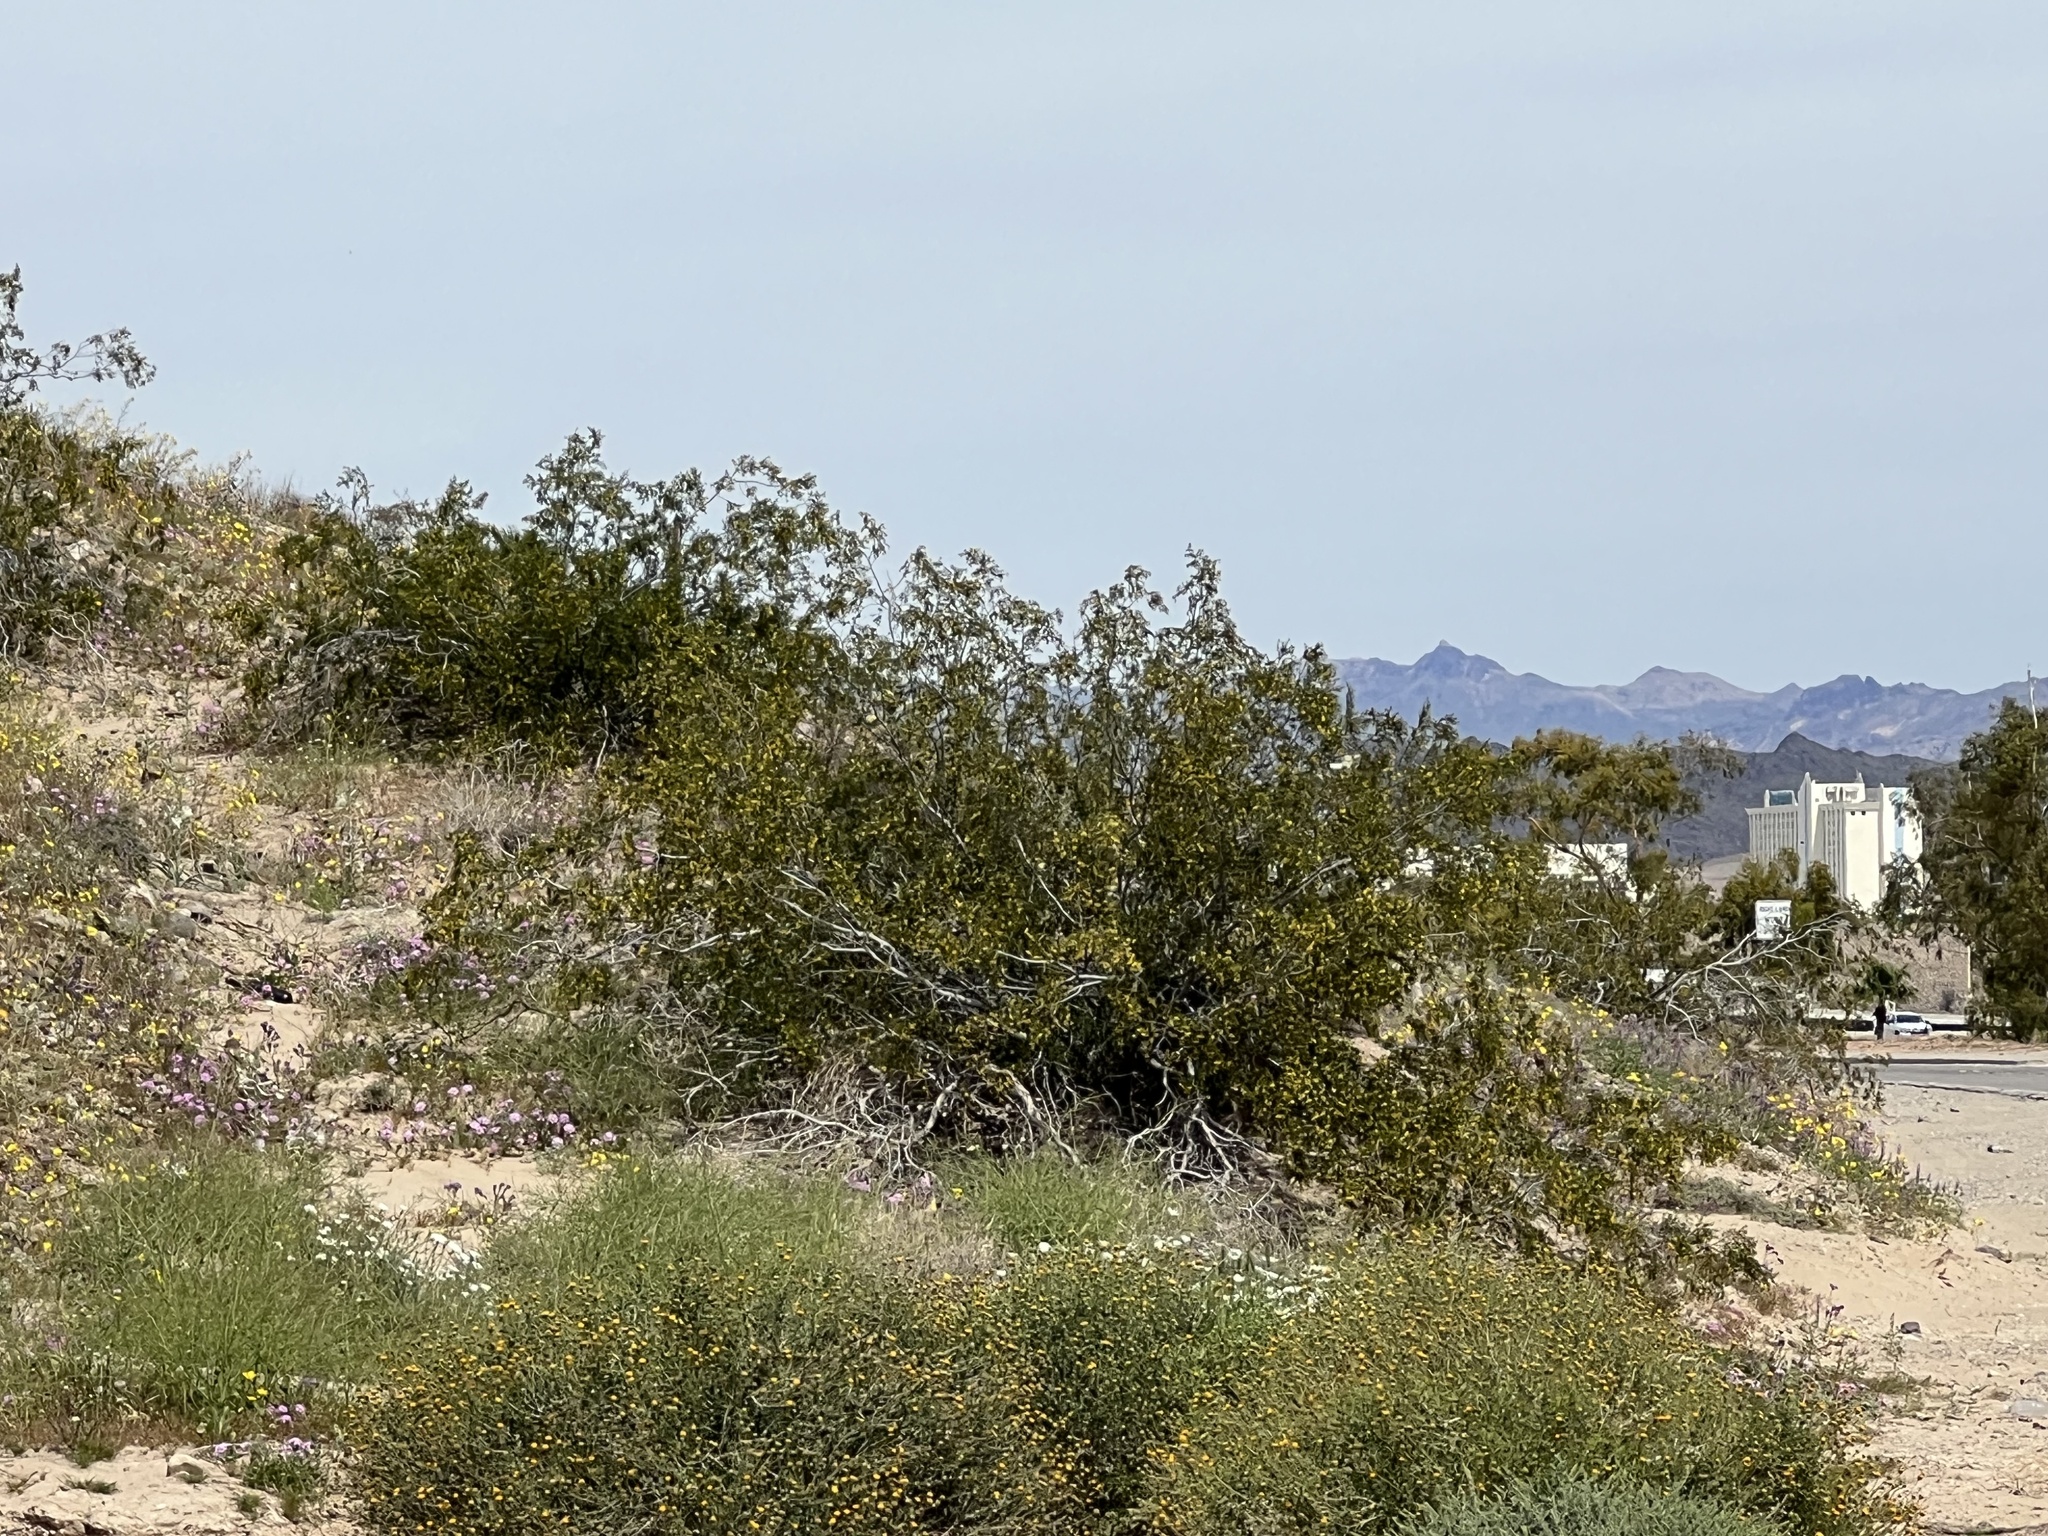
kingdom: Plantae
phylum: Tracheophyta
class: Magnoliopsida
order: Zygophyllales
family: Zygophyllaceae
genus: Larrea
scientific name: Larrea tridentata
